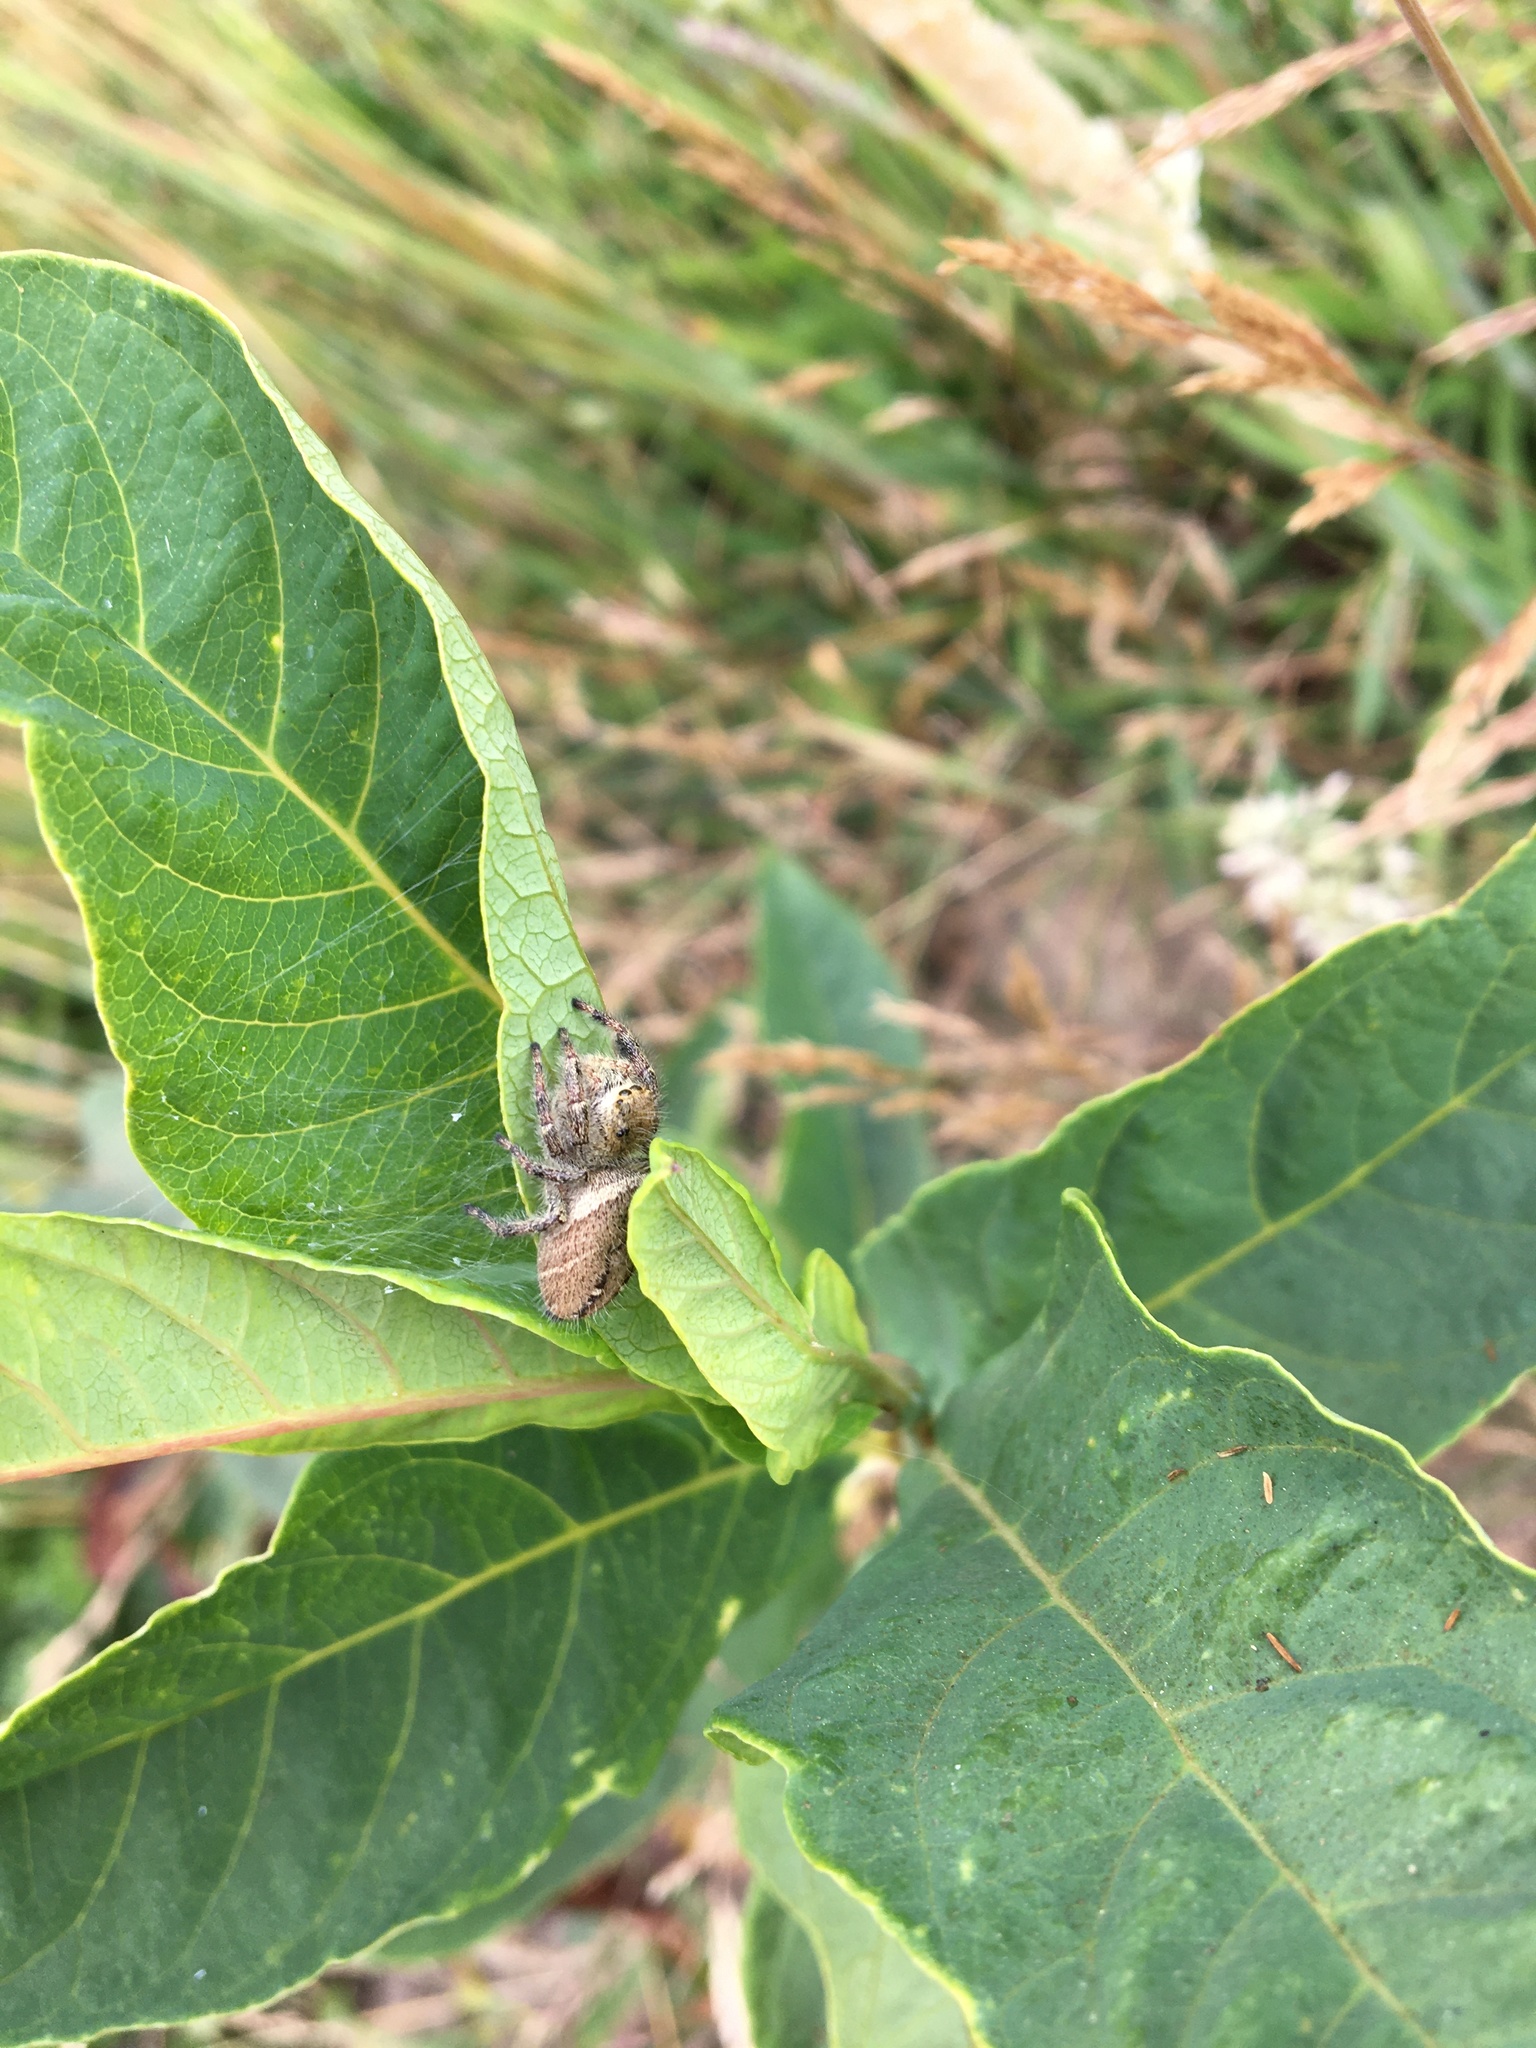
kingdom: Animalia
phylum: Arthropoda
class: Arachnida
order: Araneae
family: Salticidae
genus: Phidippus
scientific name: Phidippus clarus
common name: Brilliant jumping spider
